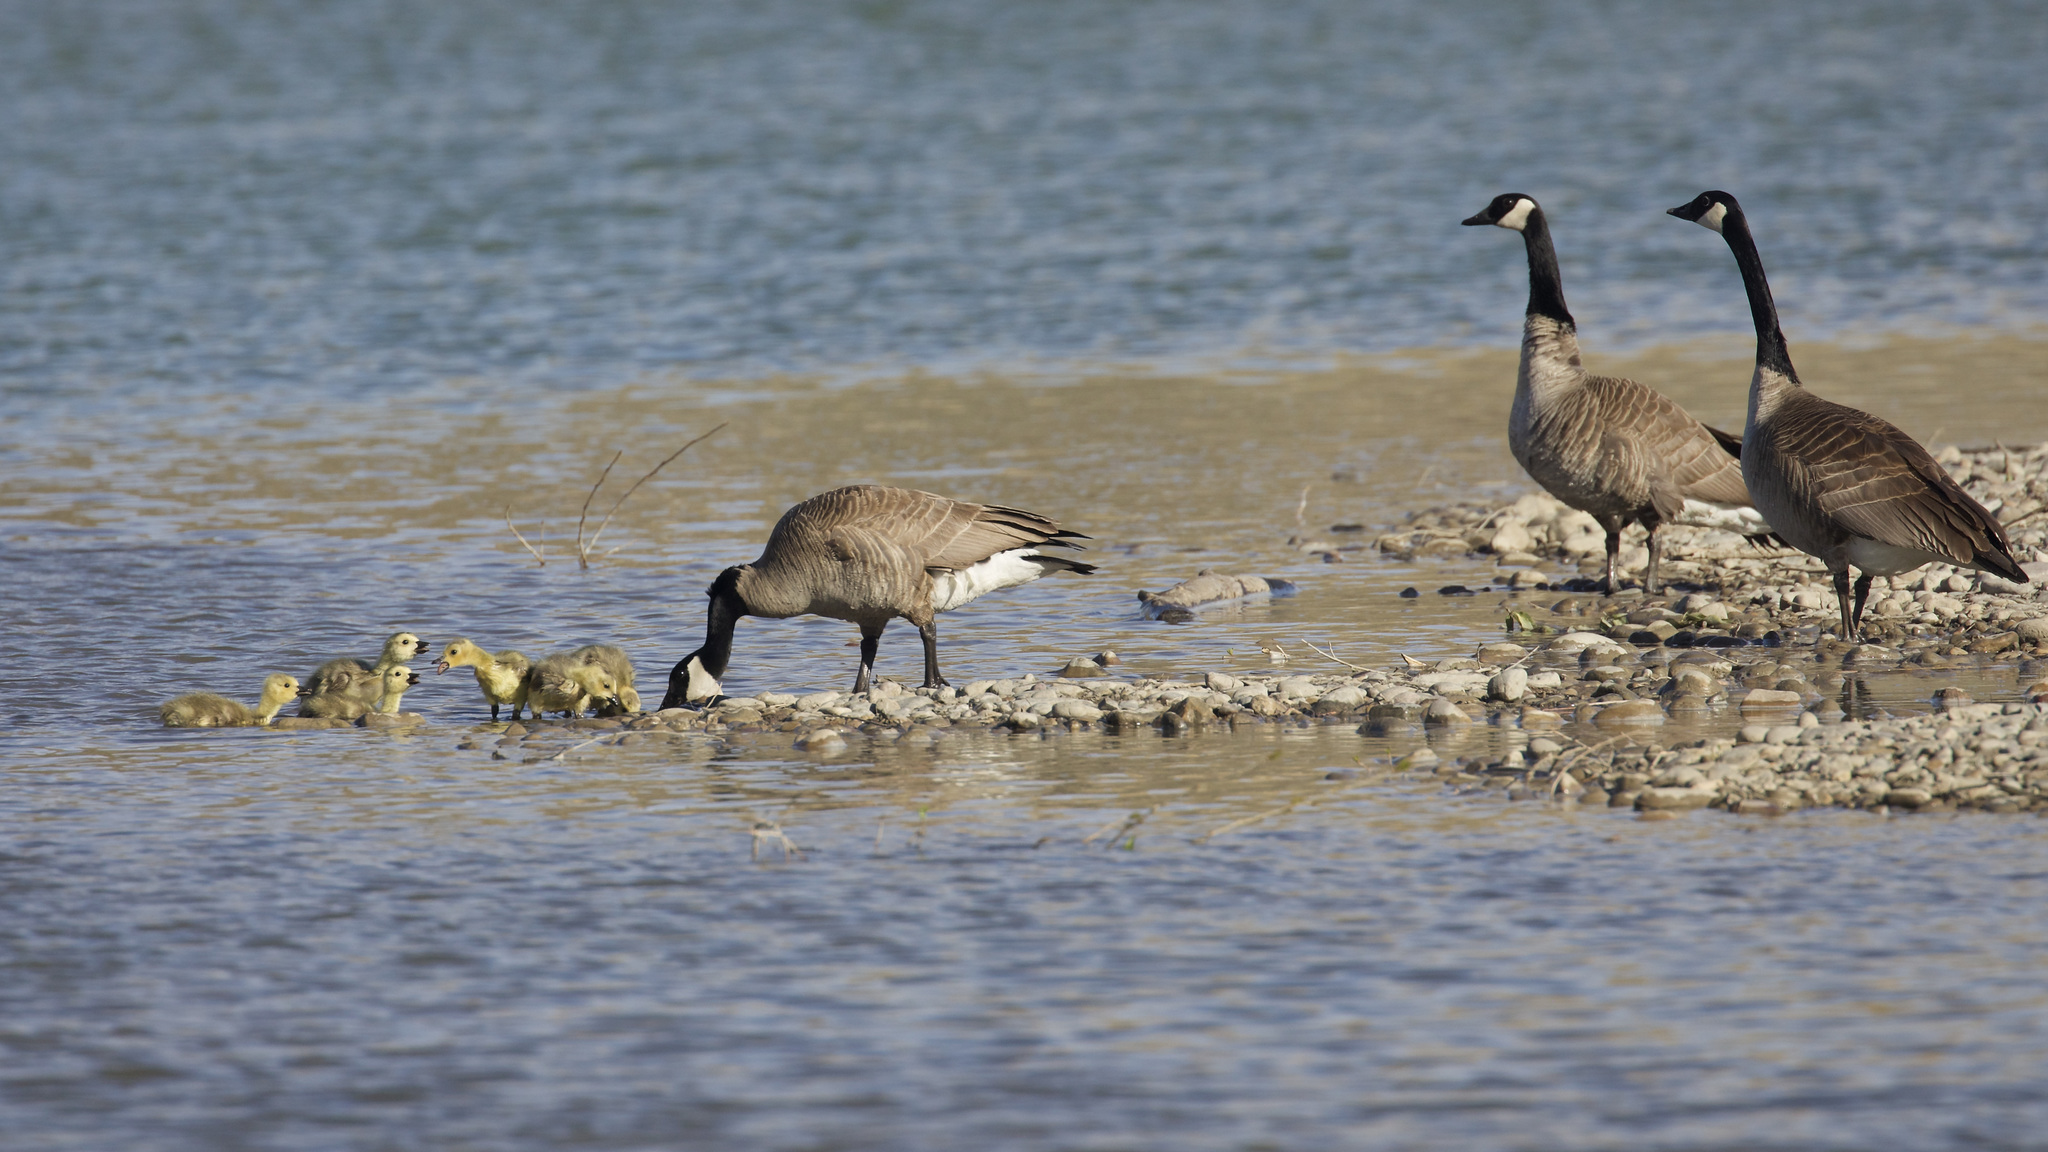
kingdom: Animalia
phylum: Chordata
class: Aves
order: Anseriformes
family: Anatidae
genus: Branta
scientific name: Branta canadensis
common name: Canada goose
